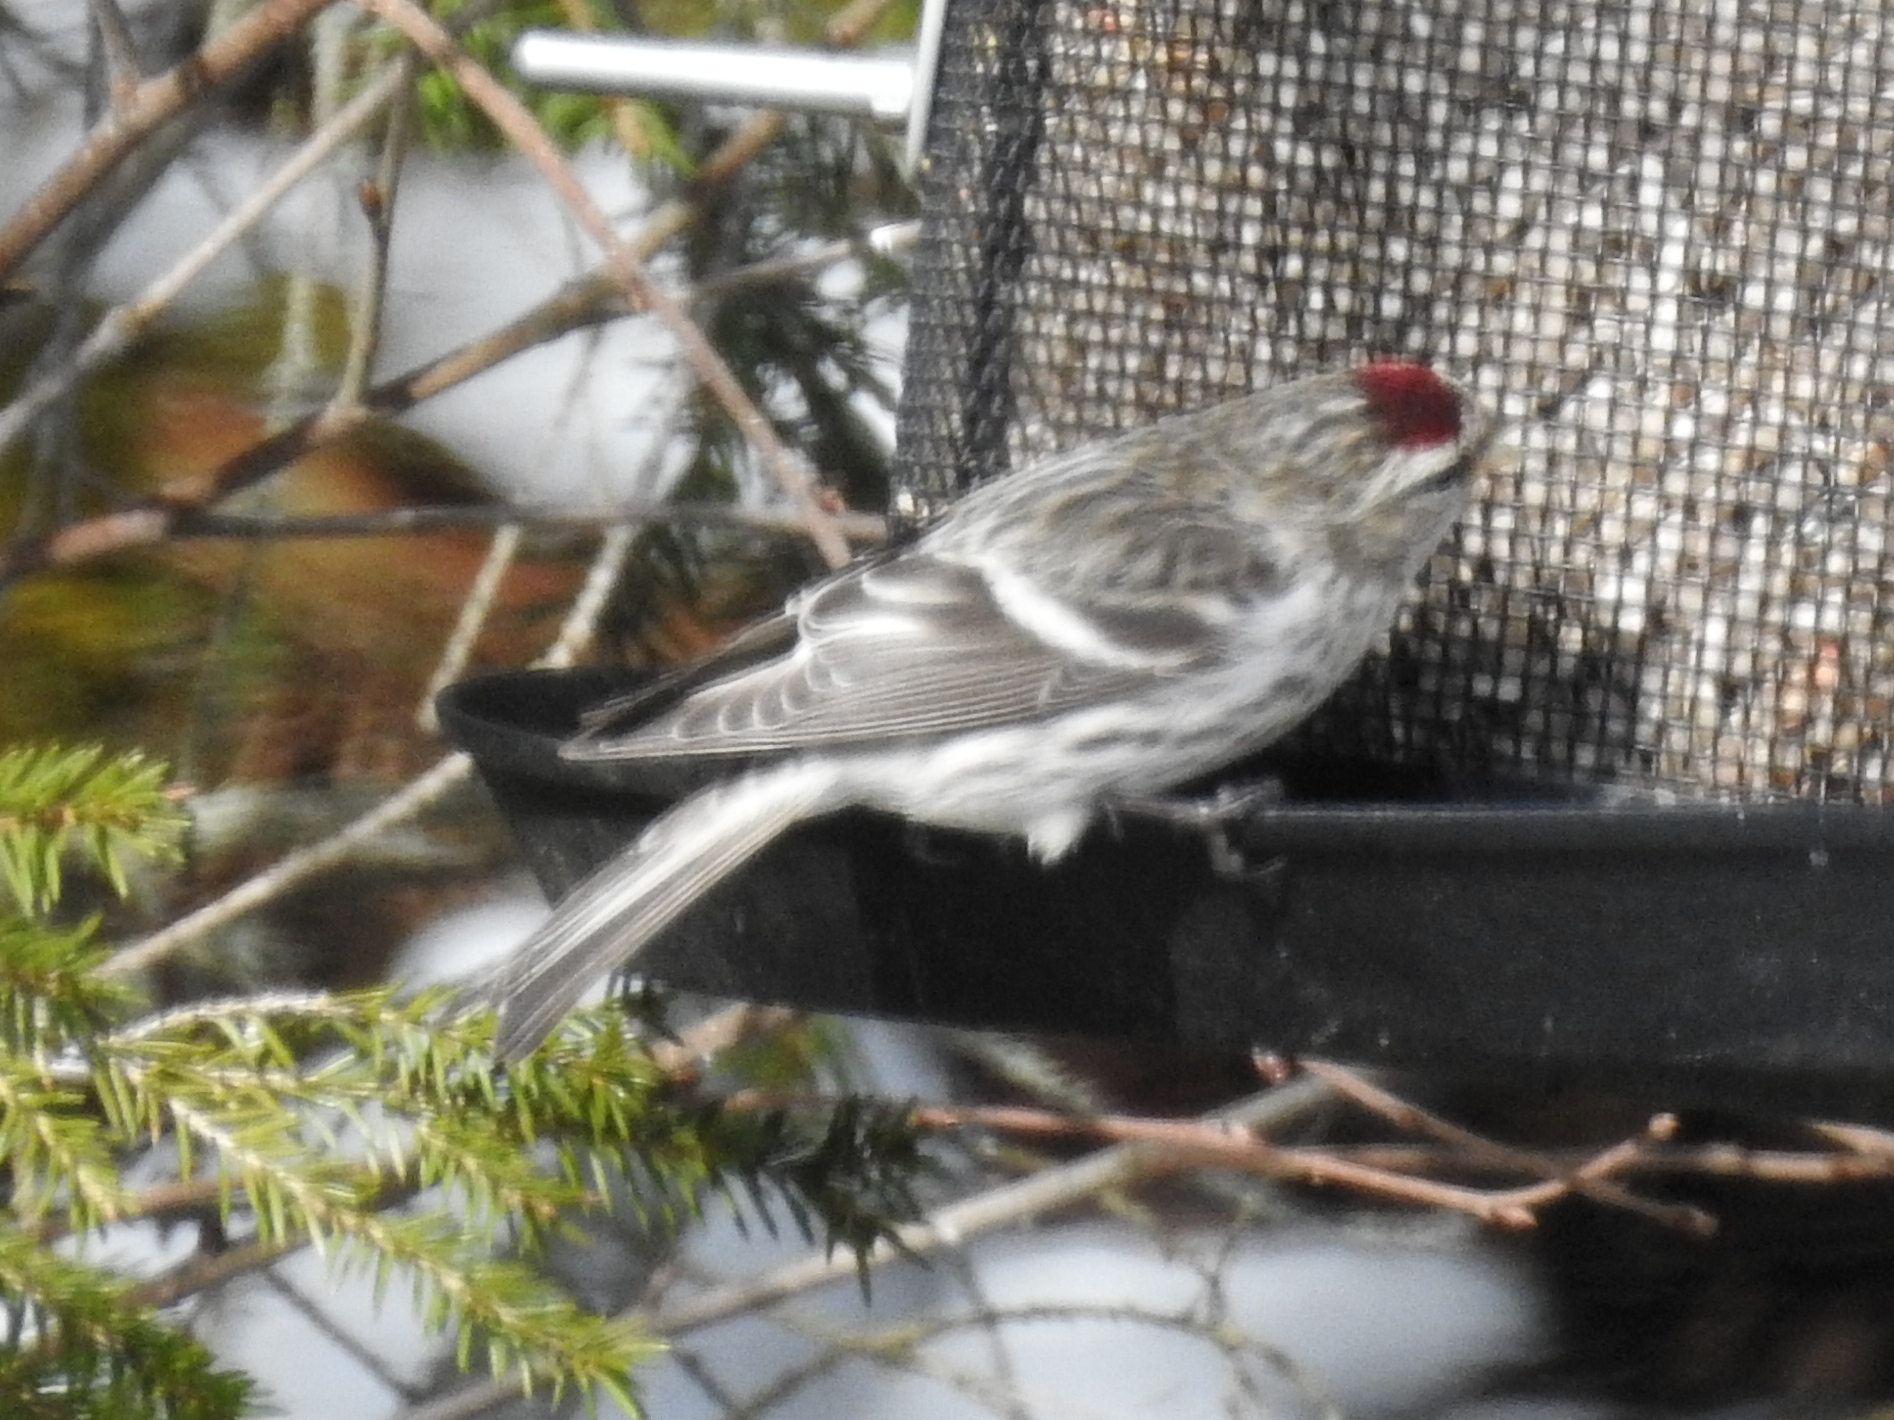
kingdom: Animalia
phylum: Chordata
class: Aves
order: Passeriformes
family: Fringillidae
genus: Acanthis
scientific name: Acanthis flammea
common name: Common redpoll
